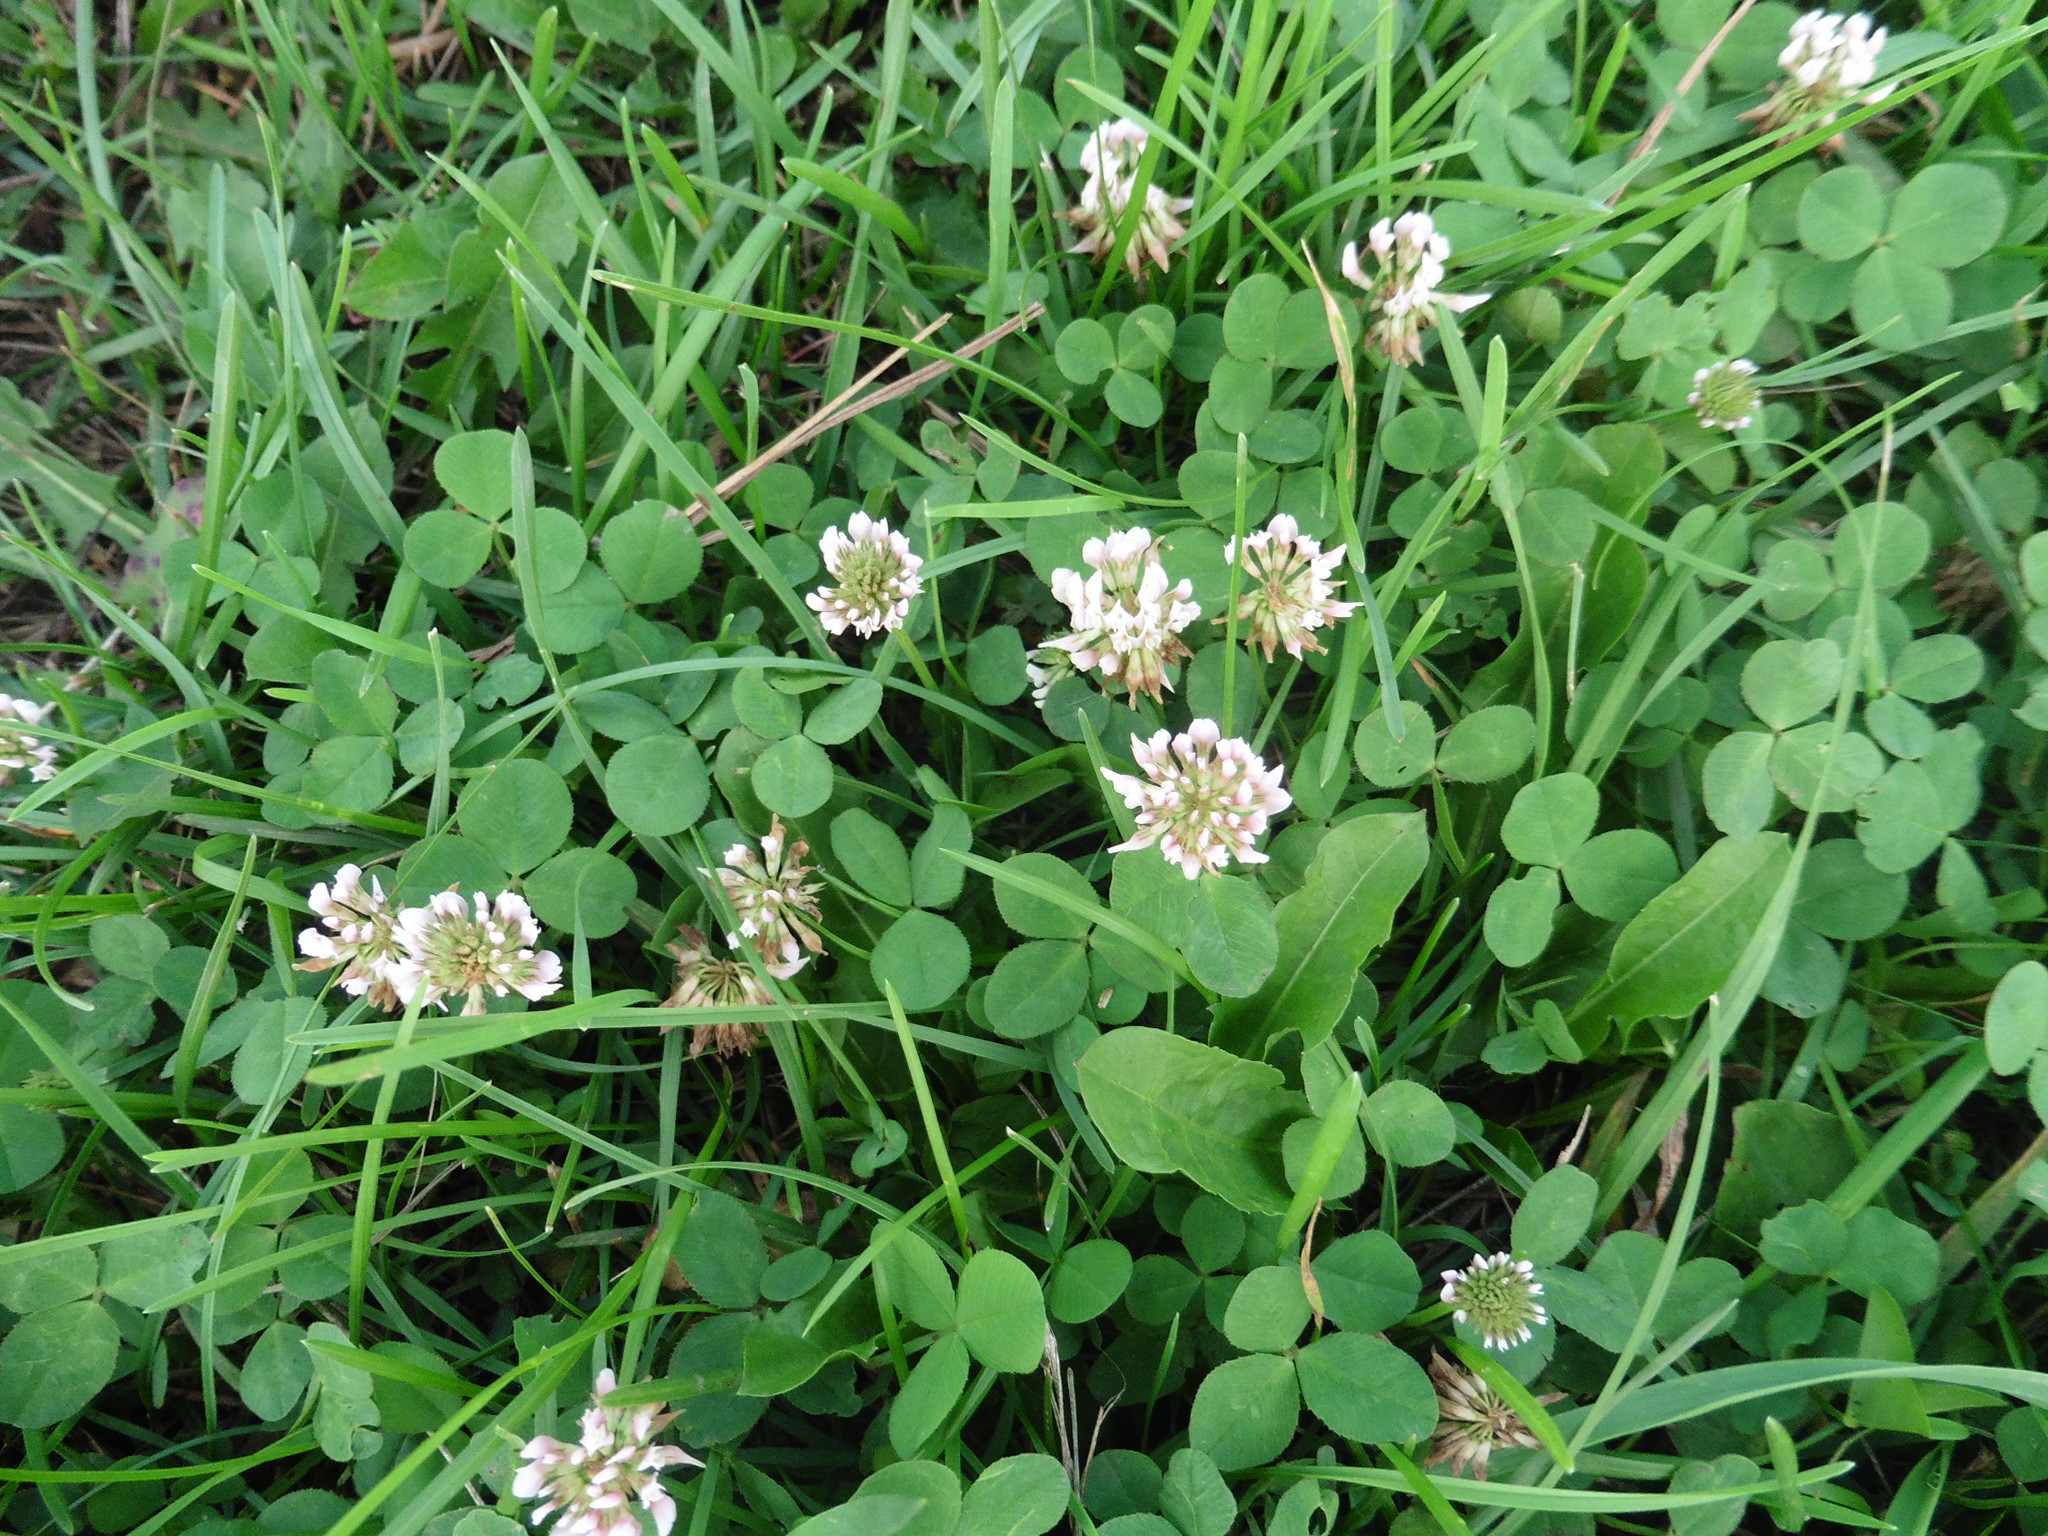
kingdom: Plantae
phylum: Tracheophyta
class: Magnoliopsida
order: Fabales
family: Fabaceae
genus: Trifolium
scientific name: Trifolium repens
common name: White clover
